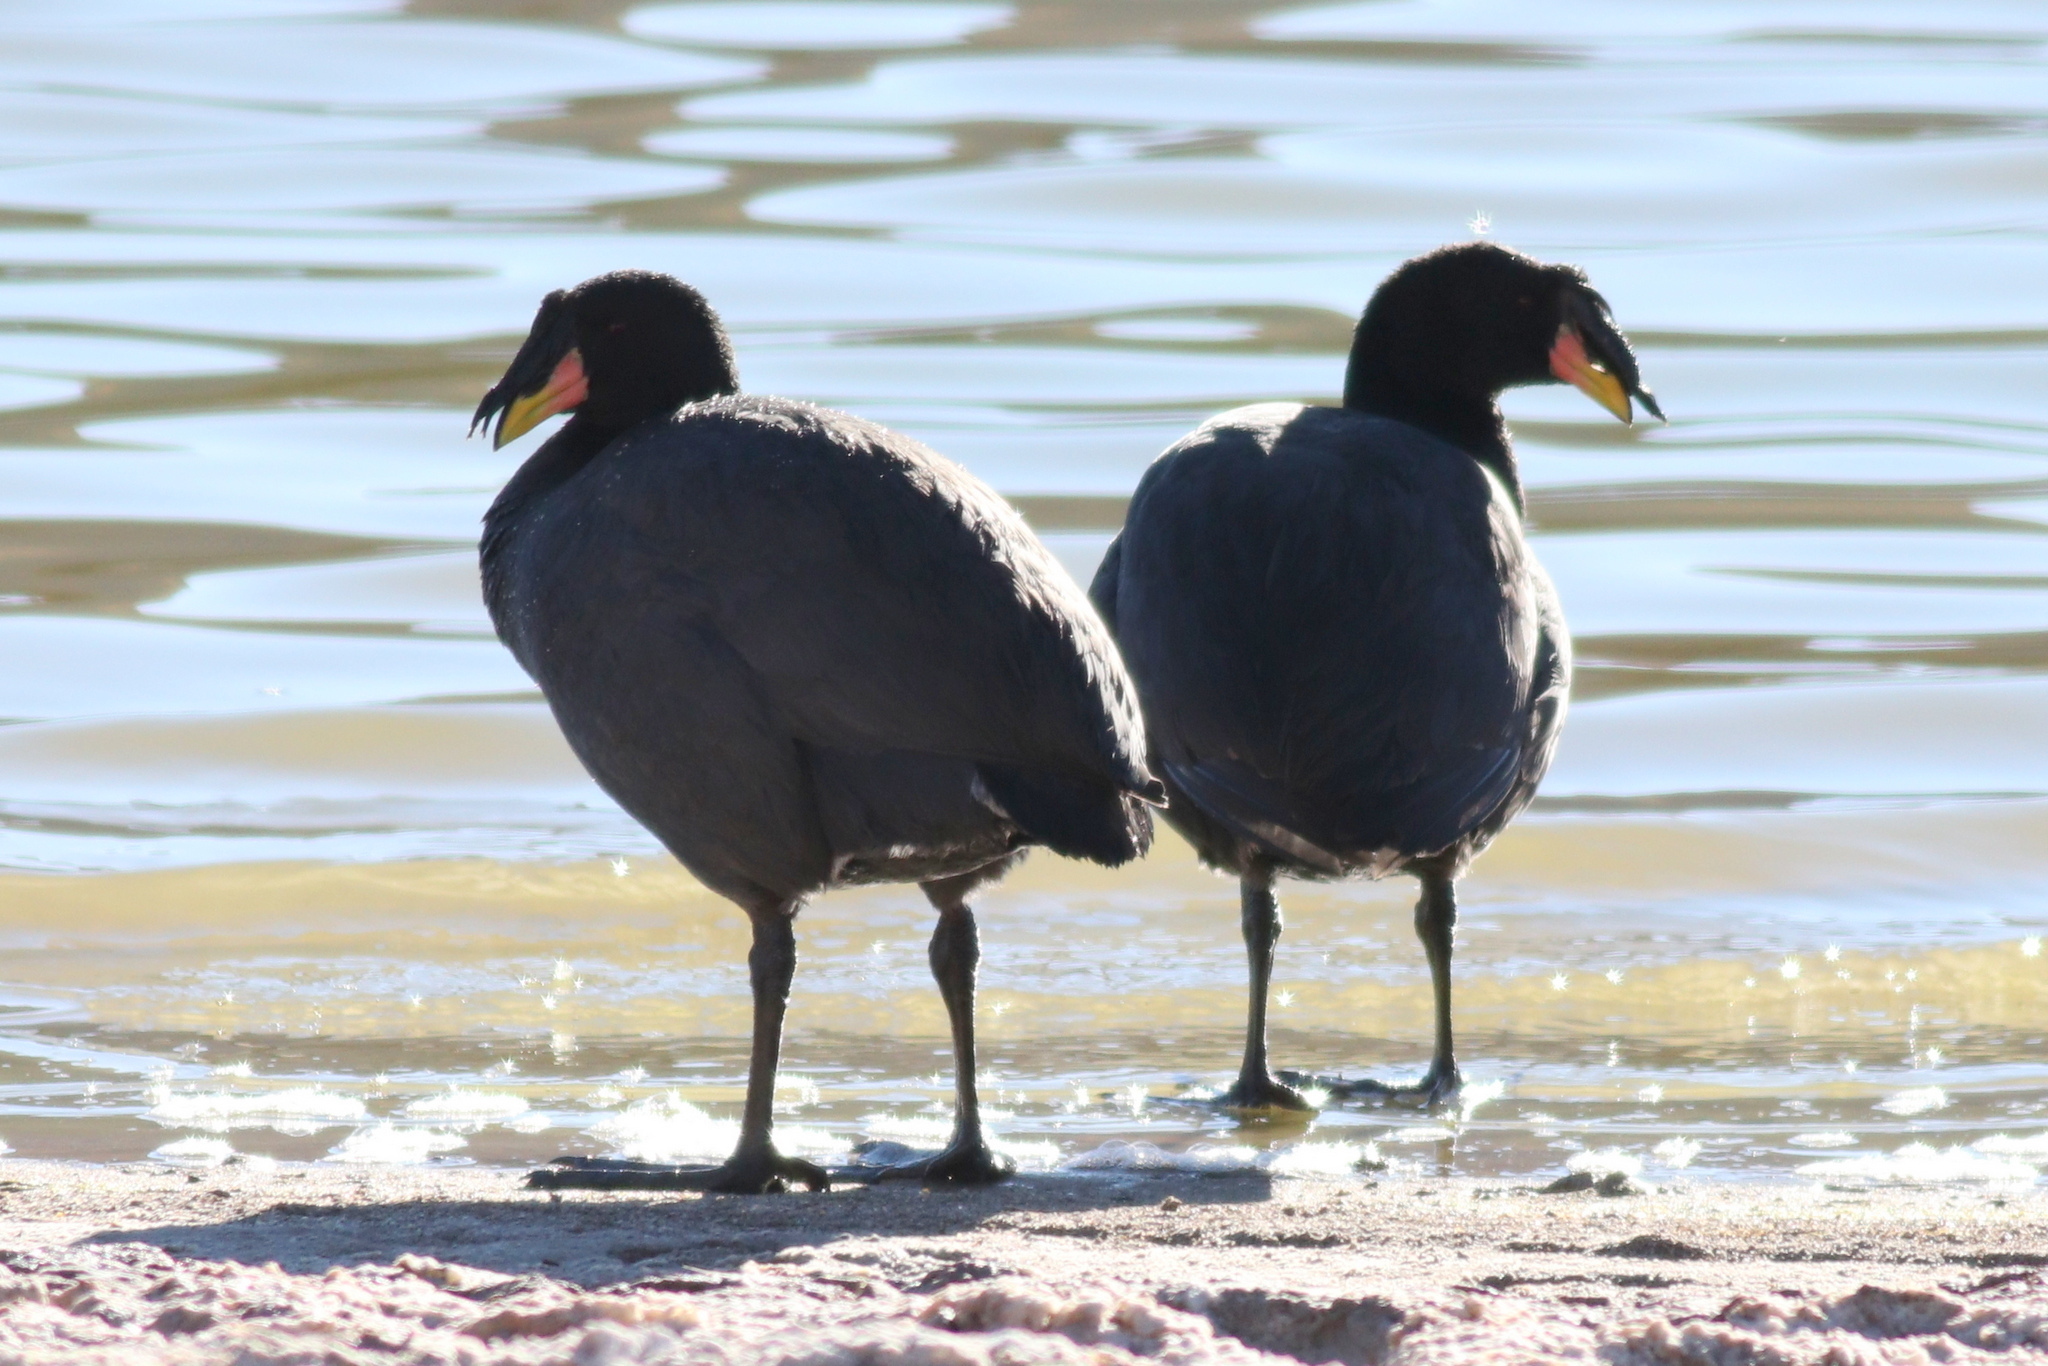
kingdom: Animalia
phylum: Chordata
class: Aves
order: Gruiformes
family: Rallidae
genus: Fulica
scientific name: Fulica cornuta
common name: Horned coot
